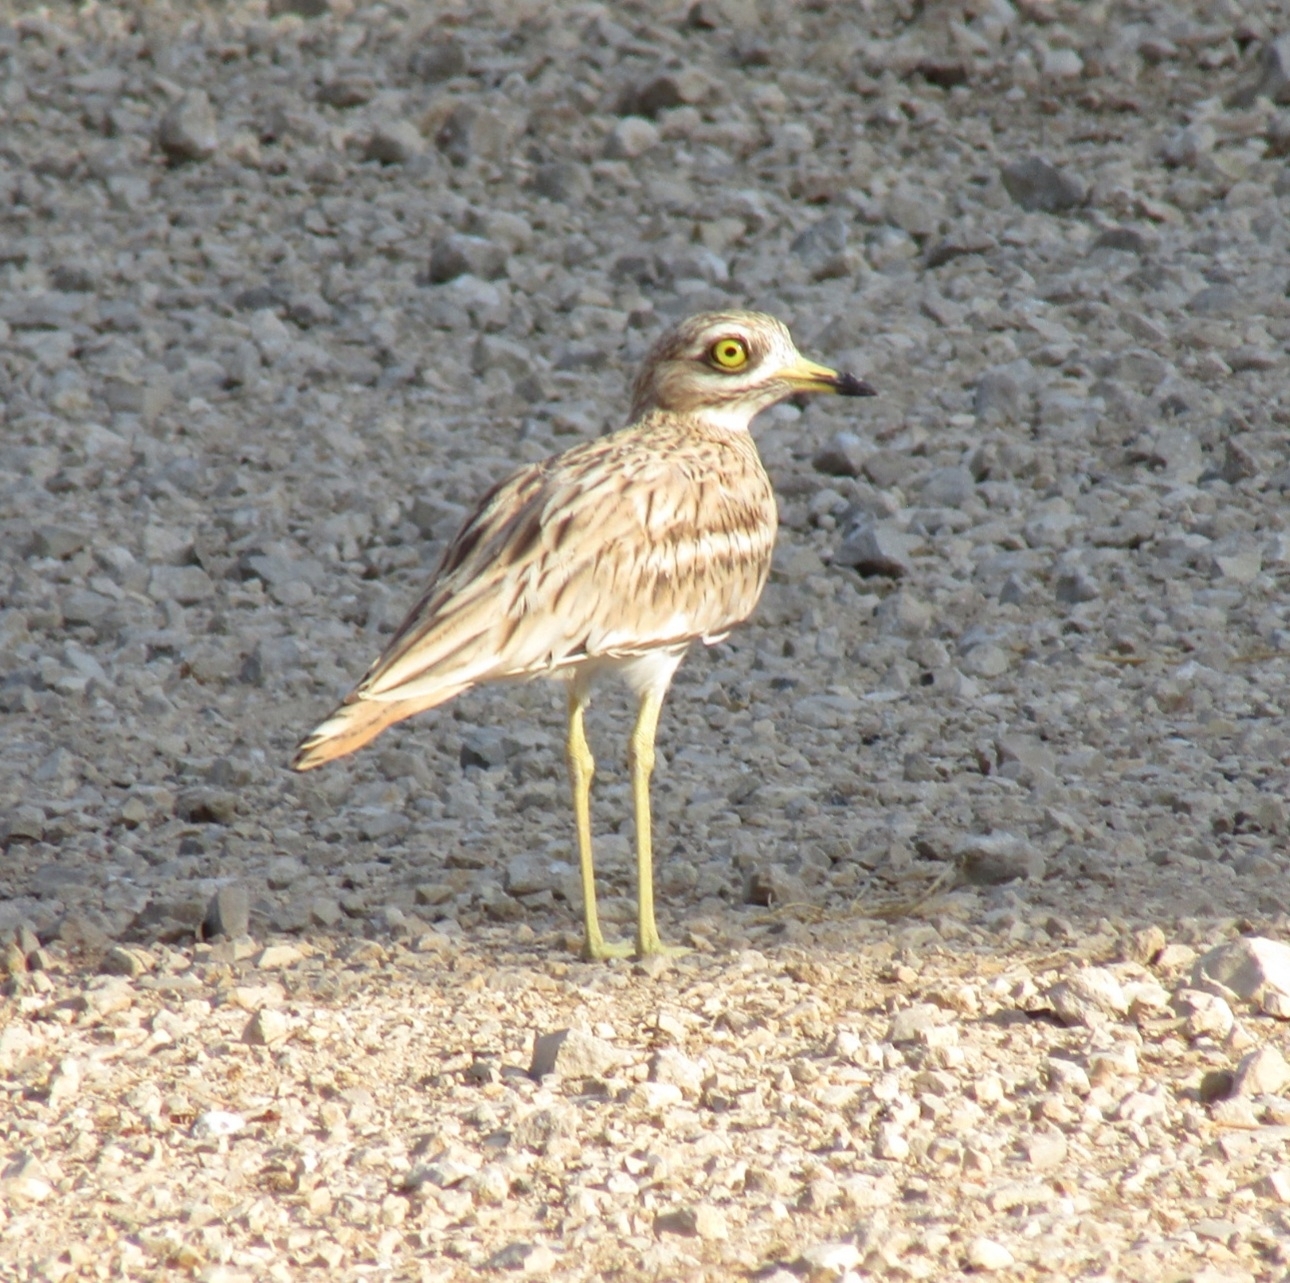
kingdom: Animalia
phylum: Chordata
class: Aves
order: Charadriiformes
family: Burhinidae
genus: Burhinus
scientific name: Burhinus oedicnemus
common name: Eurasian stone-curlew
